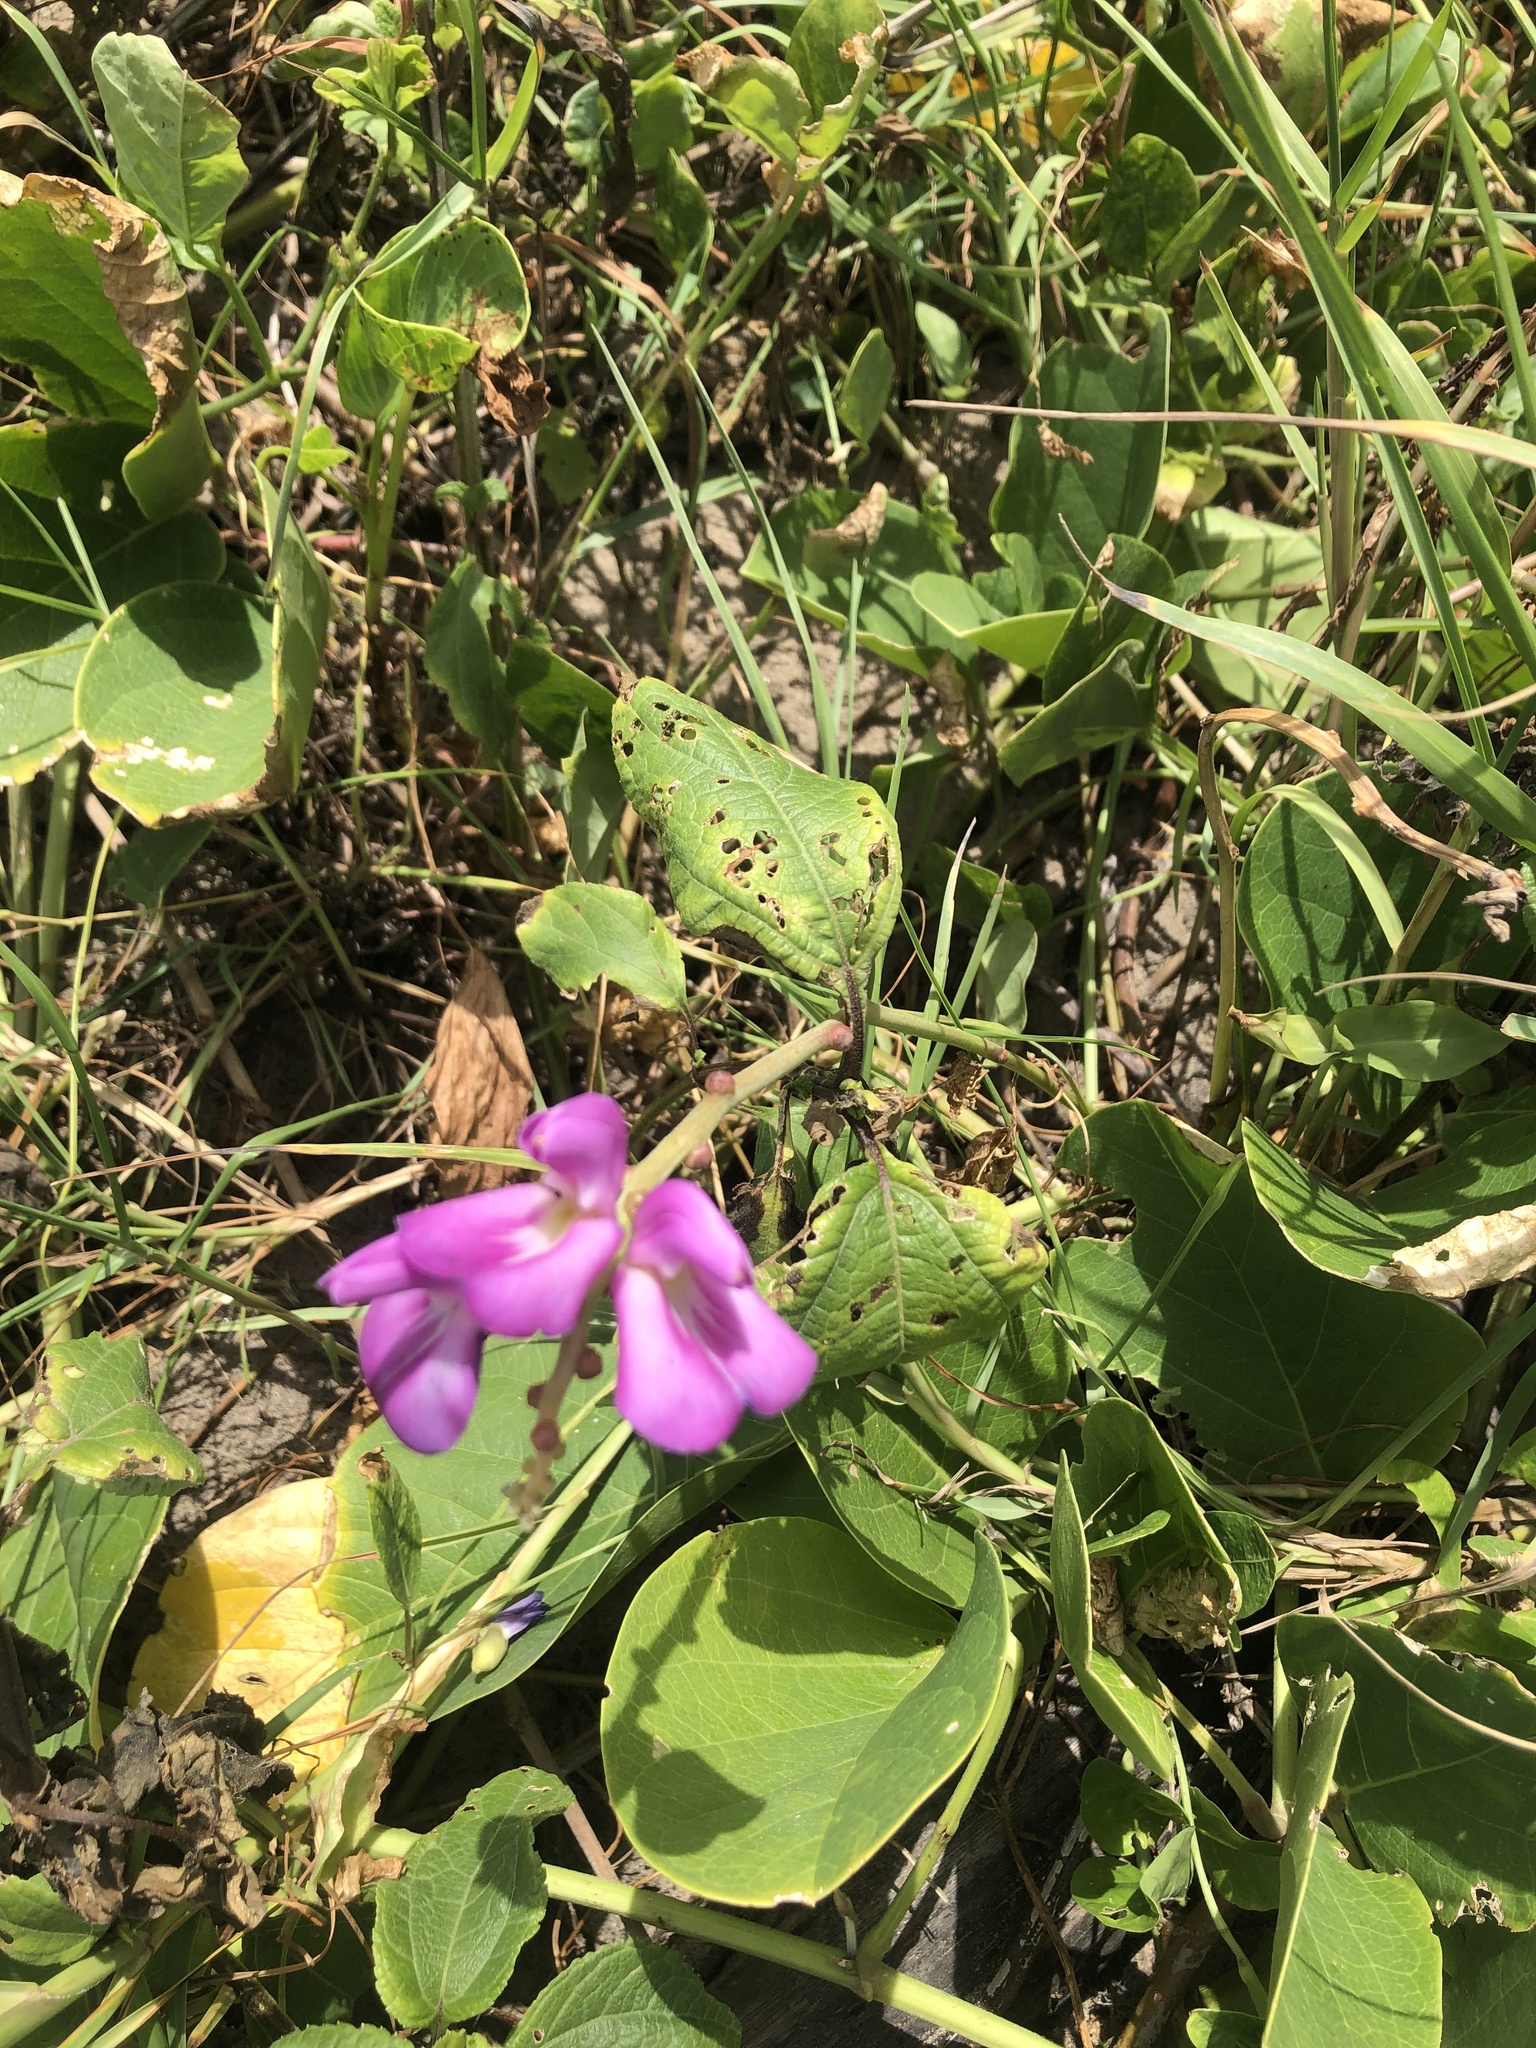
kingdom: Plantae
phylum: Tracheophyta
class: Magnoliopsida
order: Fabales
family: Fabaceae
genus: Canavalia
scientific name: Canavalia rosea
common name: Beach-bean
